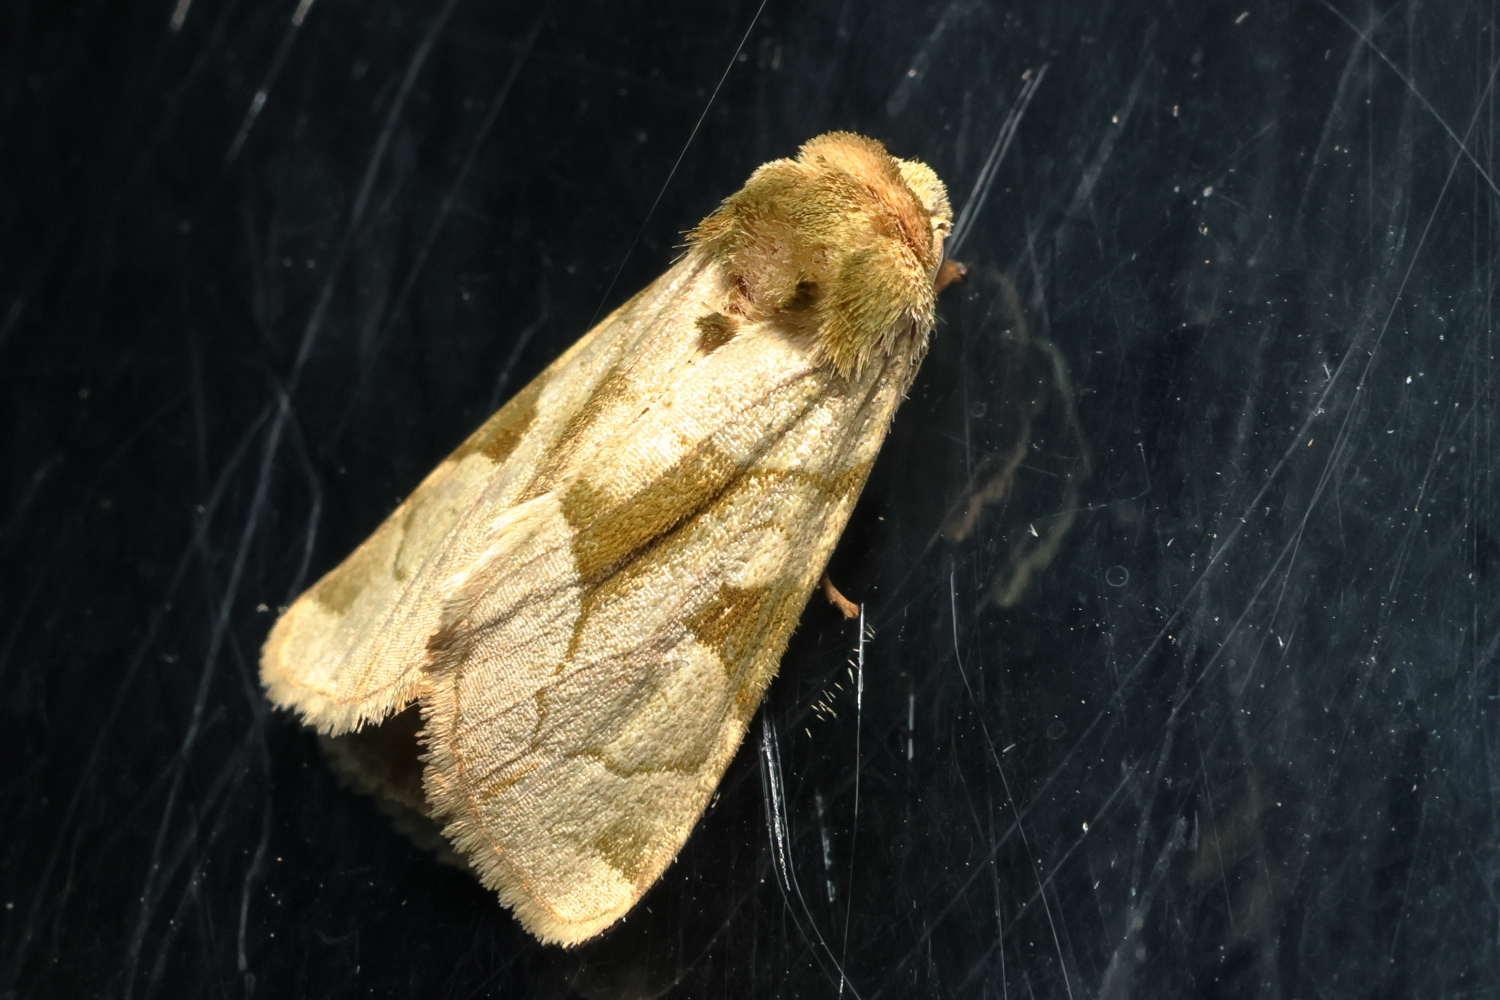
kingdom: Animalia
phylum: Arthropoda
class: Insecta
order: Lepidoptera
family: Noctuidae
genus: Oslaria
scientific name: Oslaria viridifera
